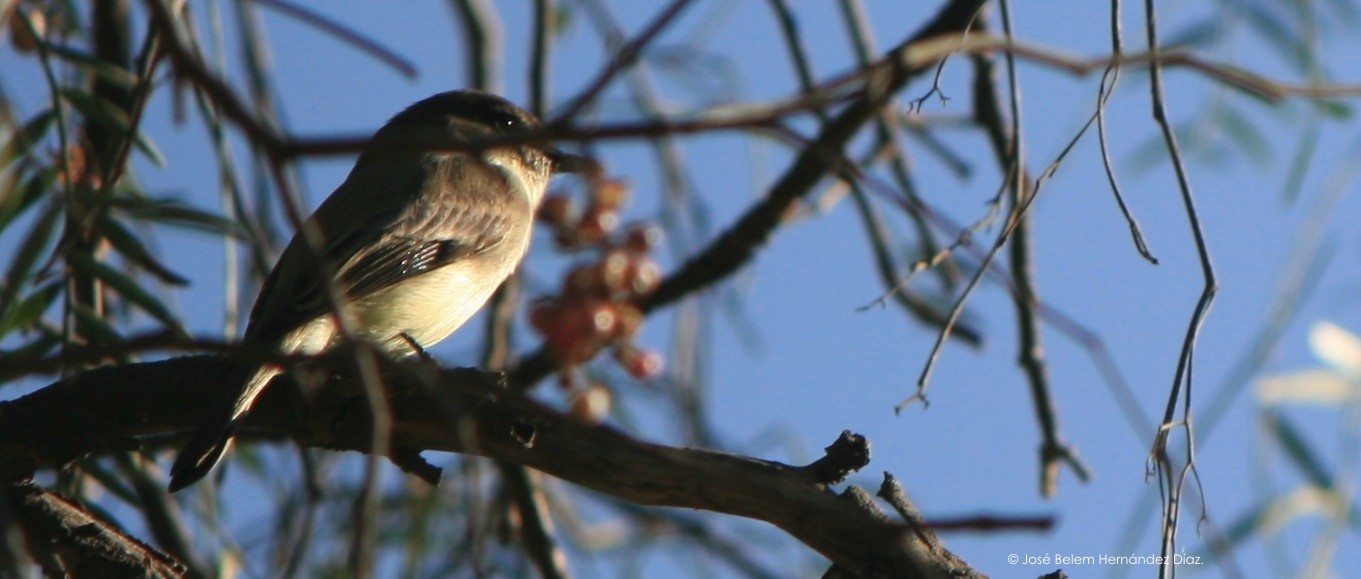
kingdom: Animalia
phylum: Chordata
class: Aves
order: Passeriformes
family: Tyrannidae
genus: Sayornis
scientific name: Sayornis phoebe
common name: Eastern phoebe
